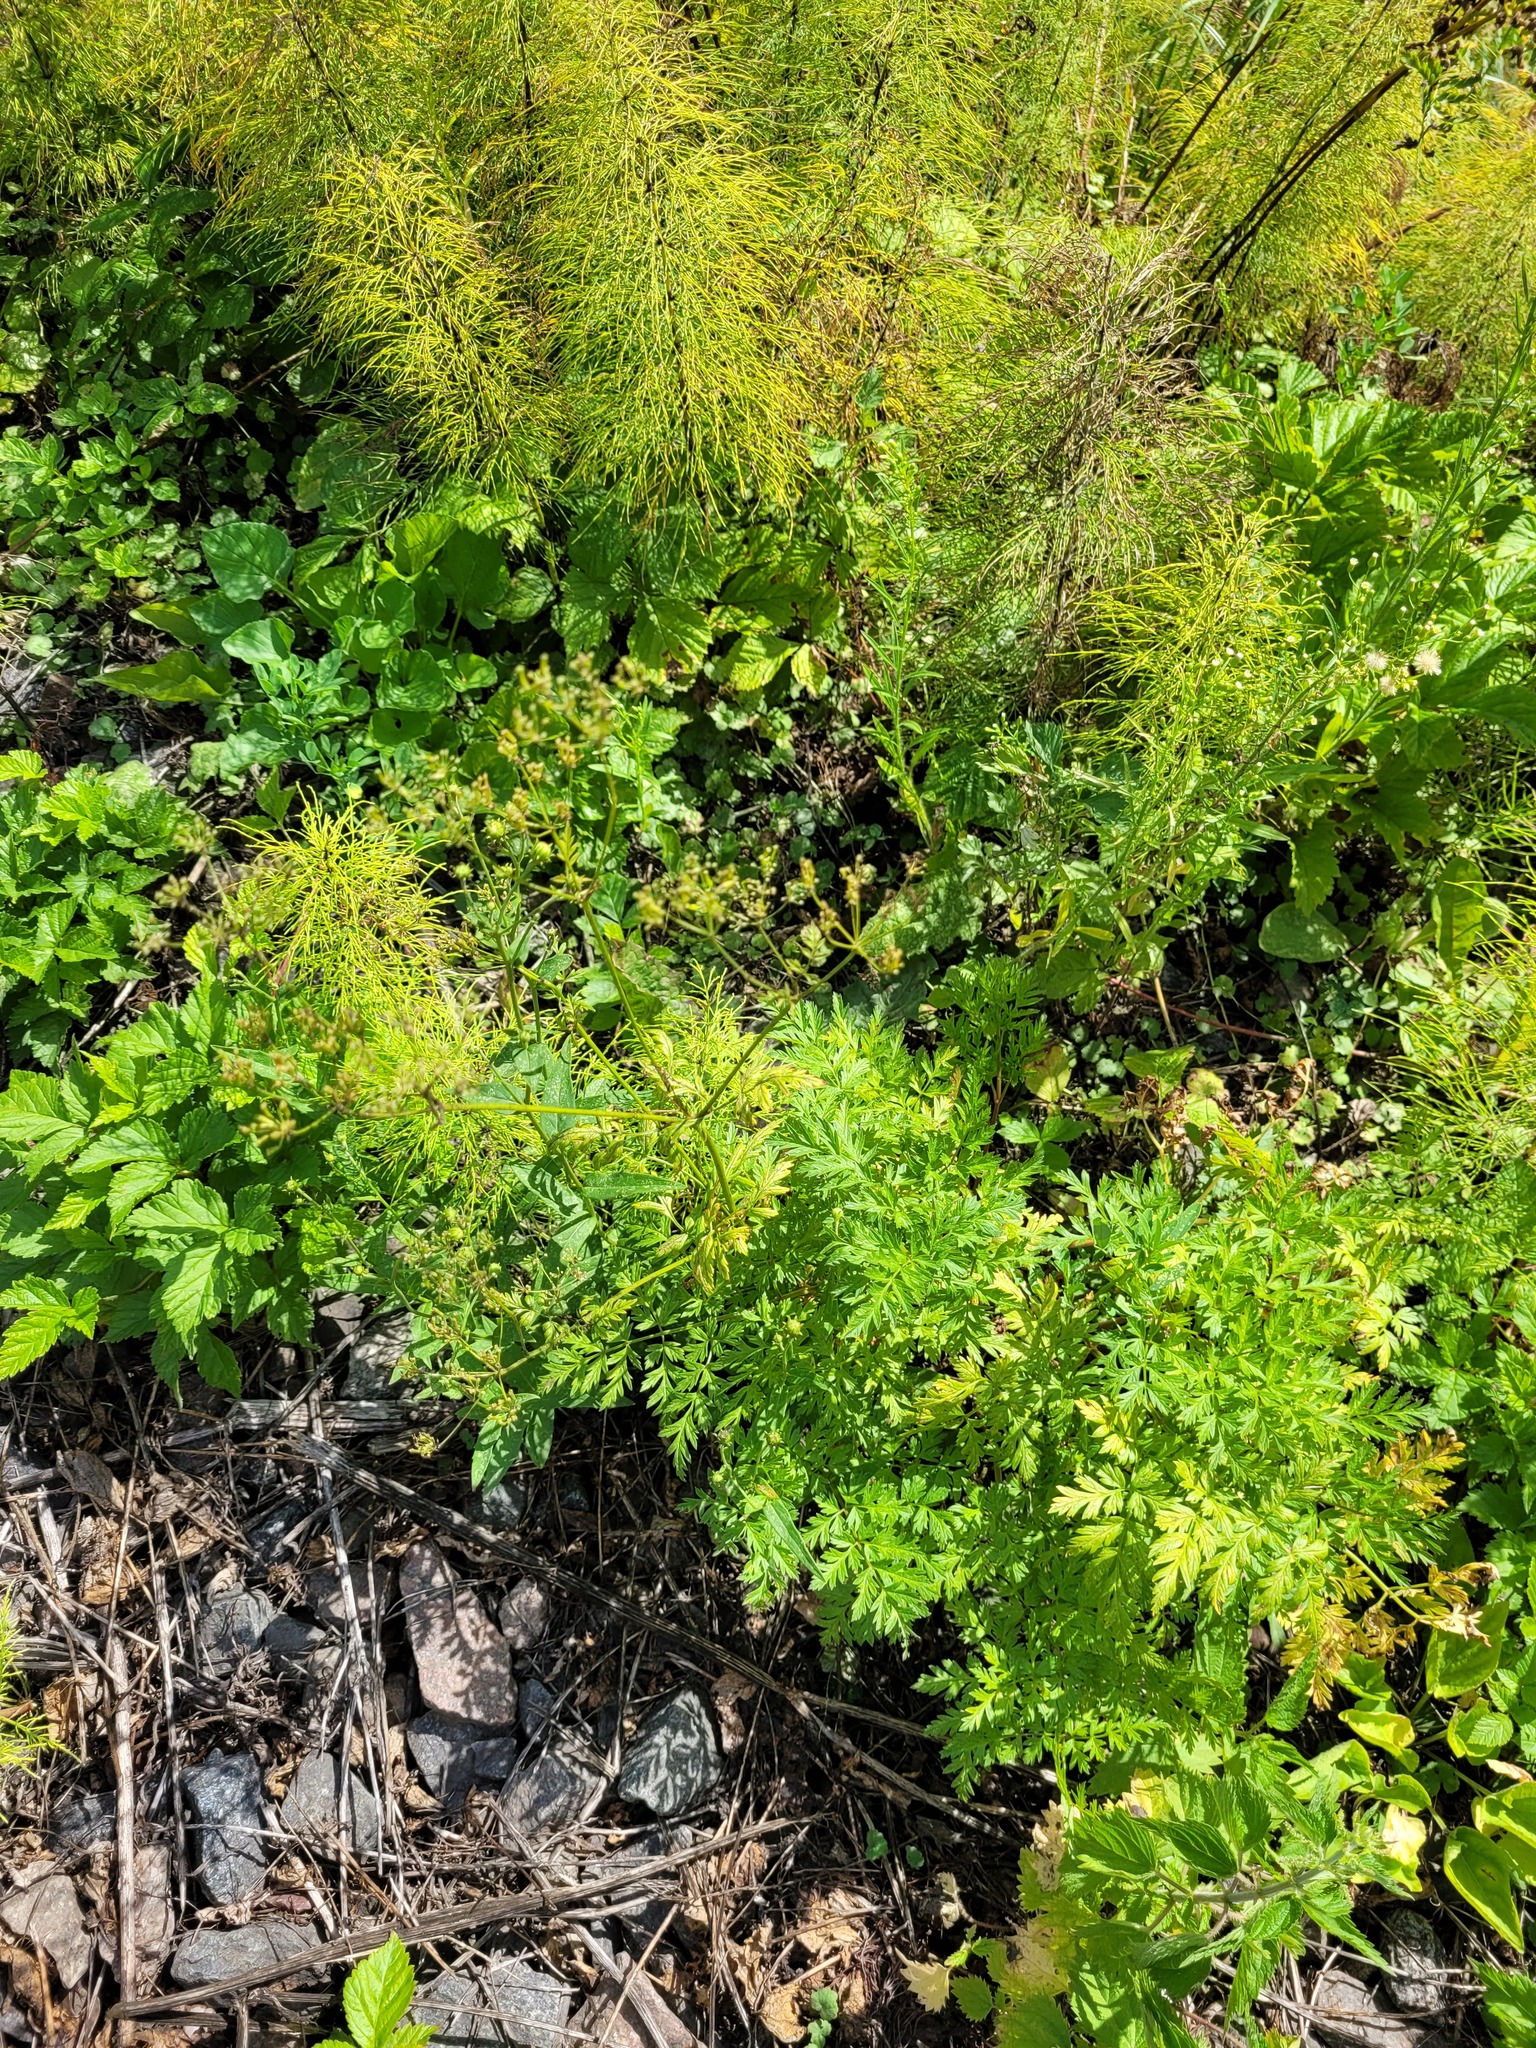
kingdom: Plantae
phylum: Tracheophyta
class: Magnoliopsida
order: Apiales
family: Apiaceae
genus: Anthriscus
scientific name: Anthriscus sylvestris
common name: Cow parsley
